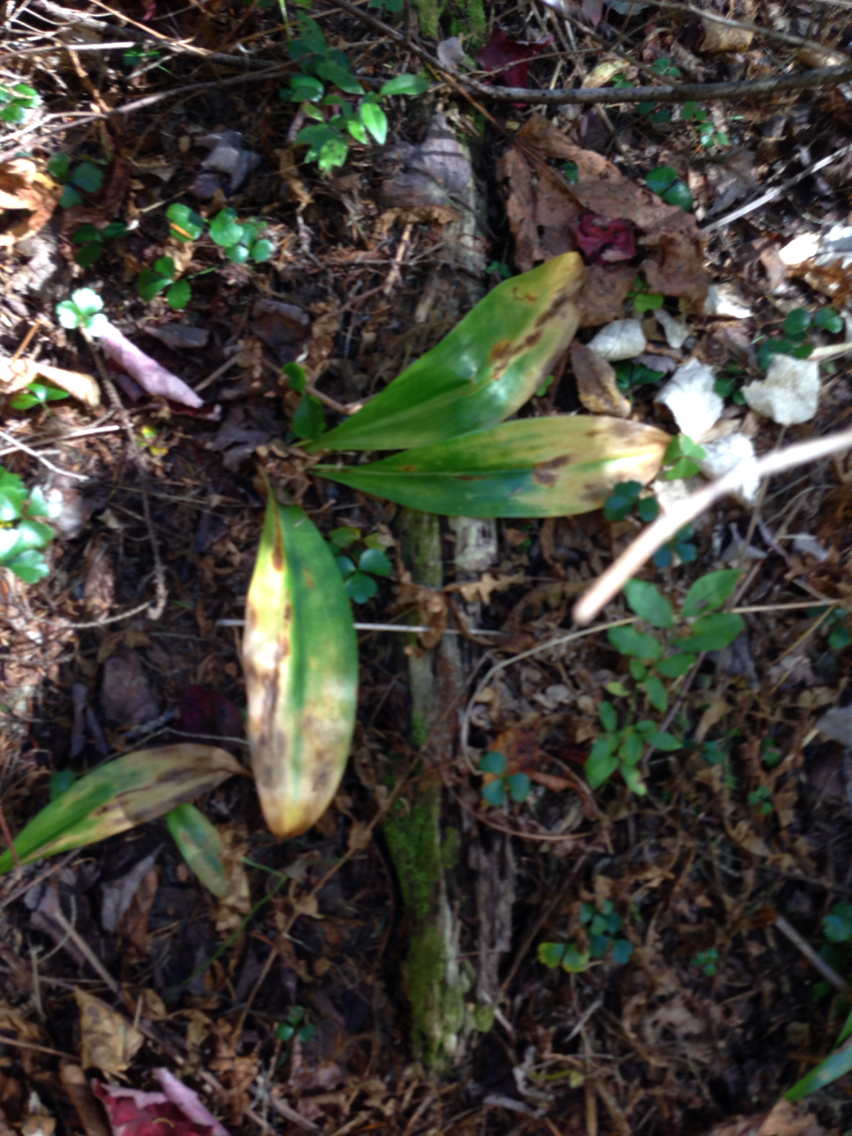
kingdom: Plantae
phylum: Tracheophyta
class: Liliopsida
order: Liliales
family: Liliaceae
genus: Clintonia
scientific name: Clintonia borealis
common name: Yellow clintonia
